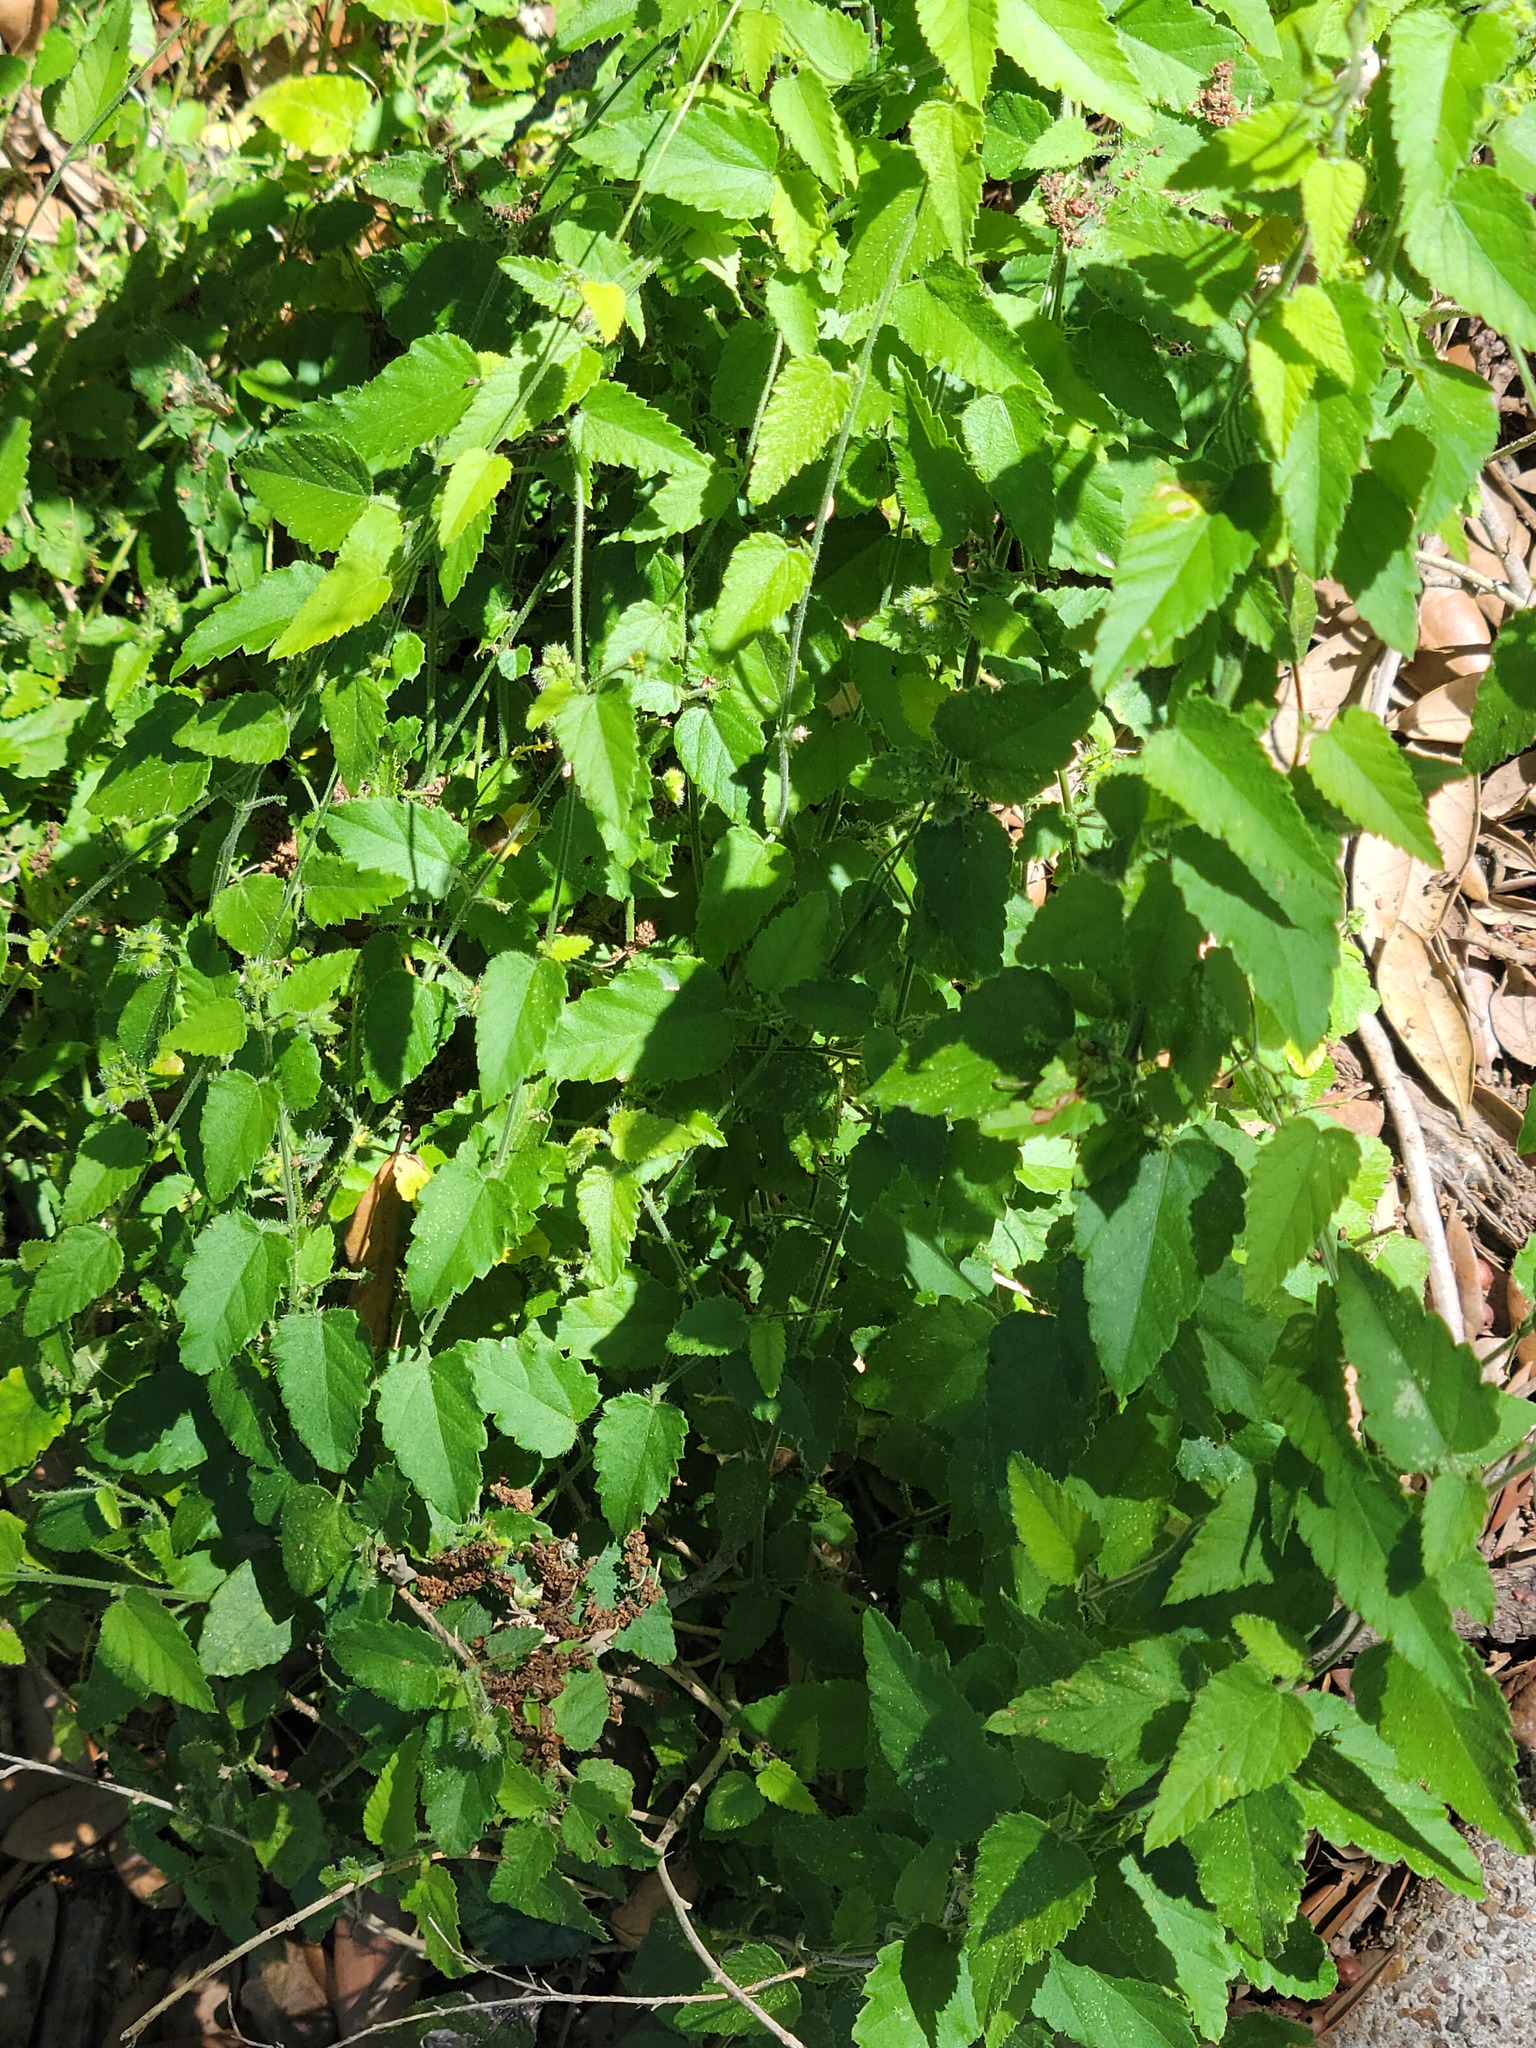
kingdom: Plantae
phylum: Tracheophyta
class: Magnoliopsida
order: Malpighiales
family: Euphorbiaceae
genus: Tragia
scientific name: Tragia glanduligera
